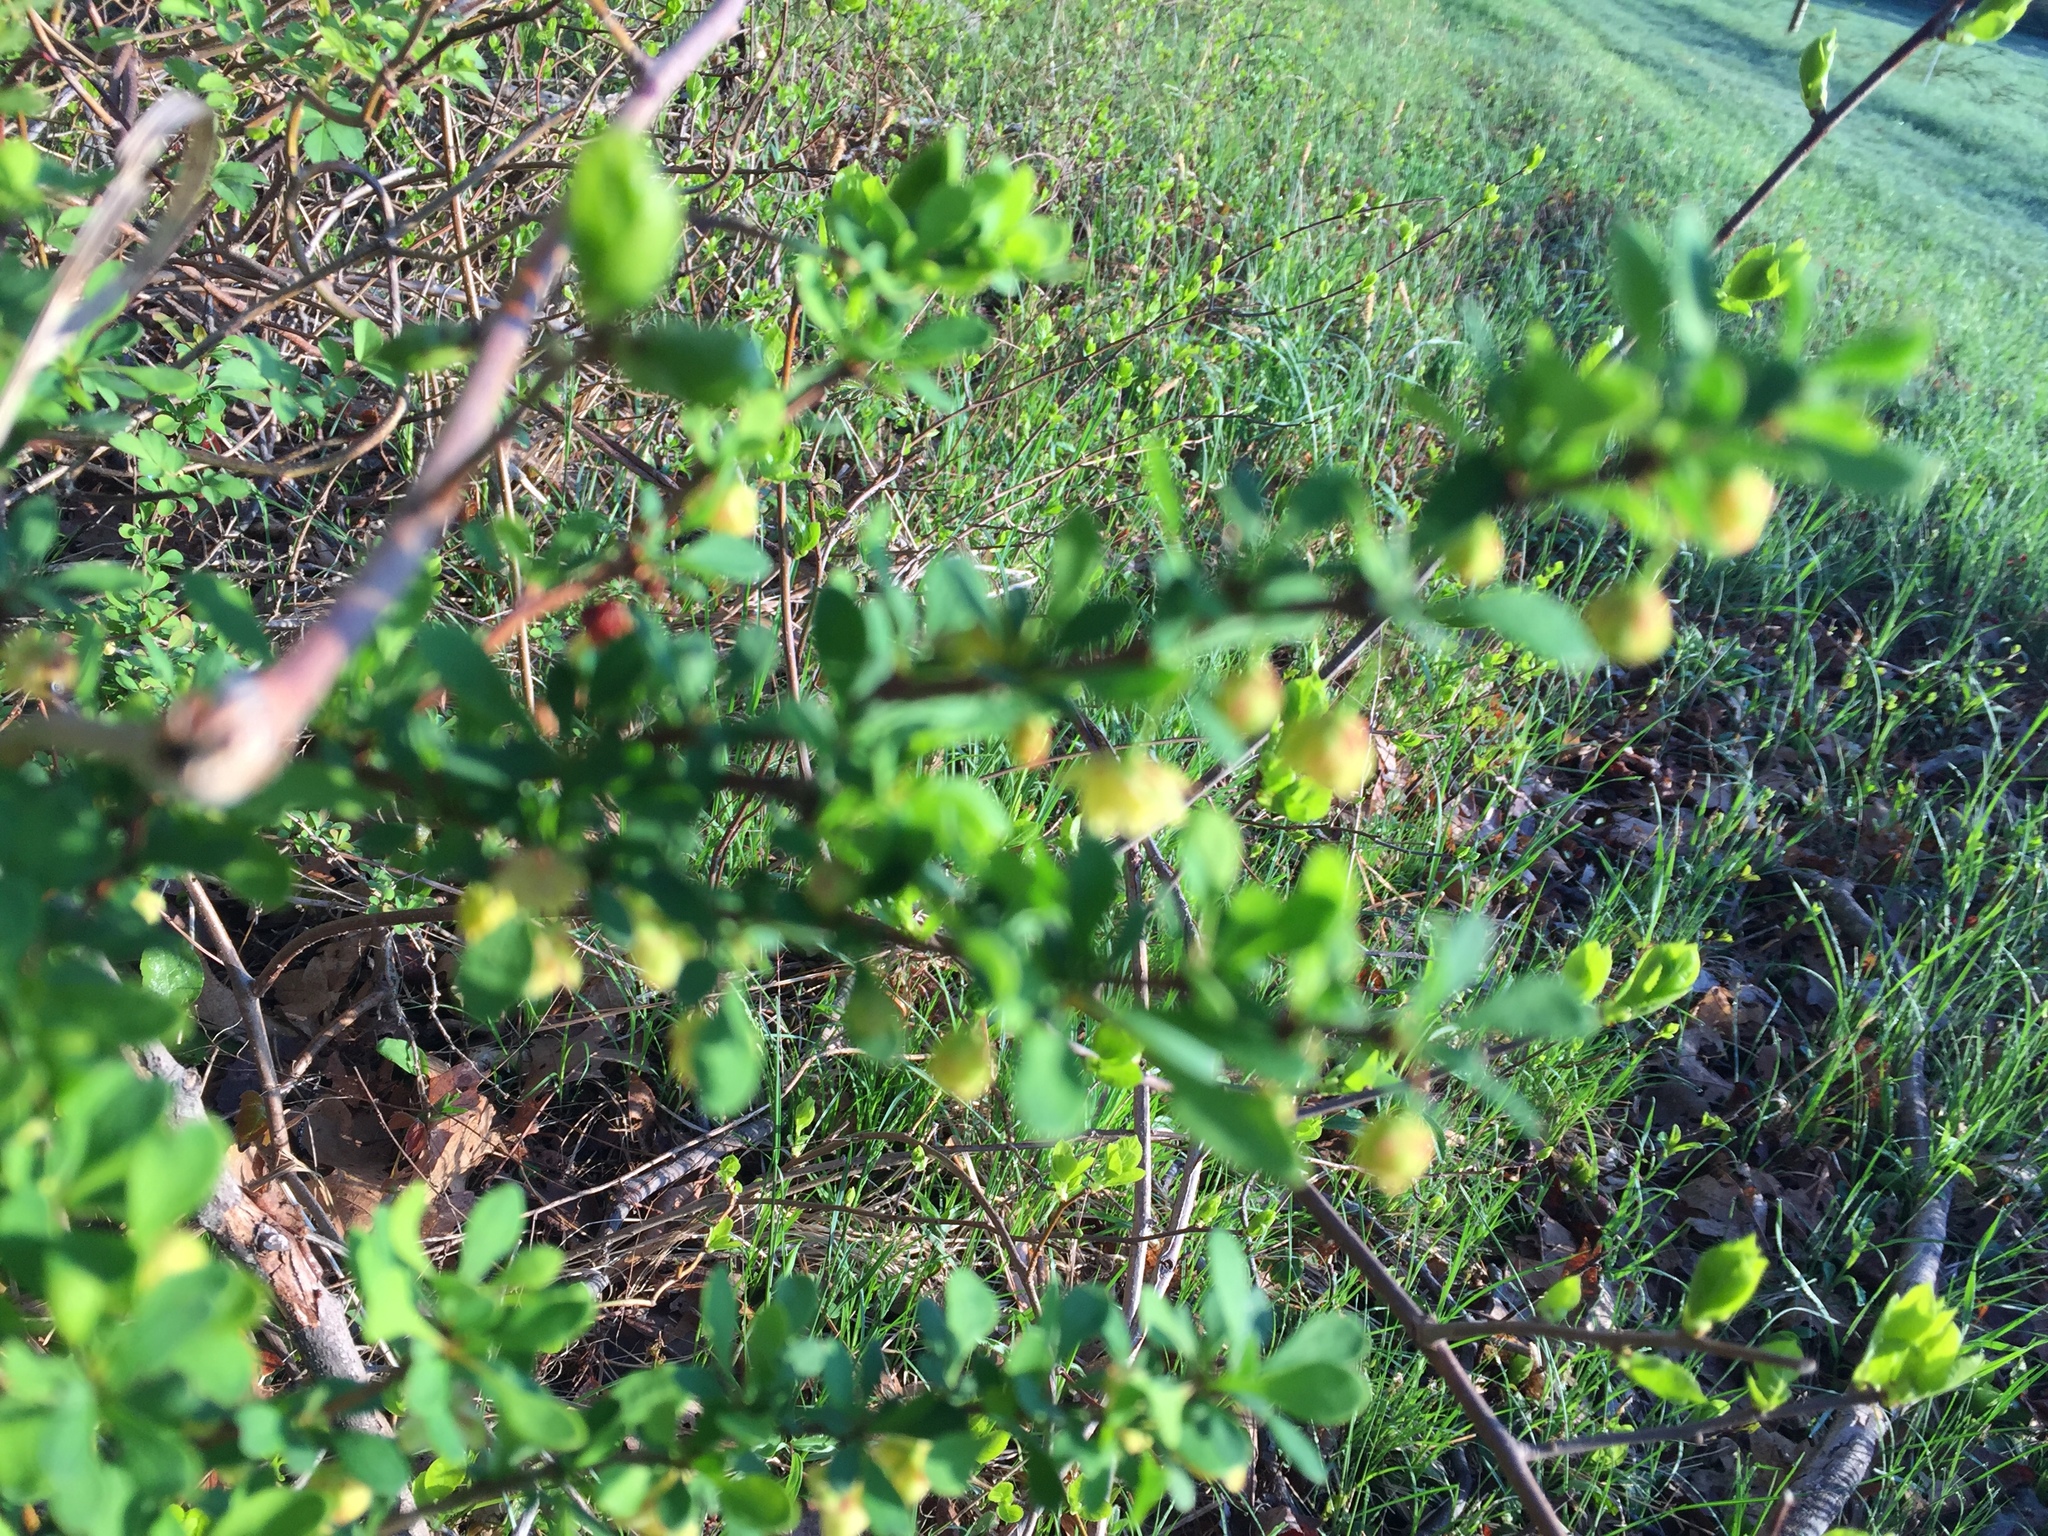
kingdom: Plantae
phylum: Tracheophyta
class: Magnoliopsida
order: Ranunculales
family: Berberidaceae
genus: Berberis
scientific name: Berberis thunbergii
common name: Japanese barberry
